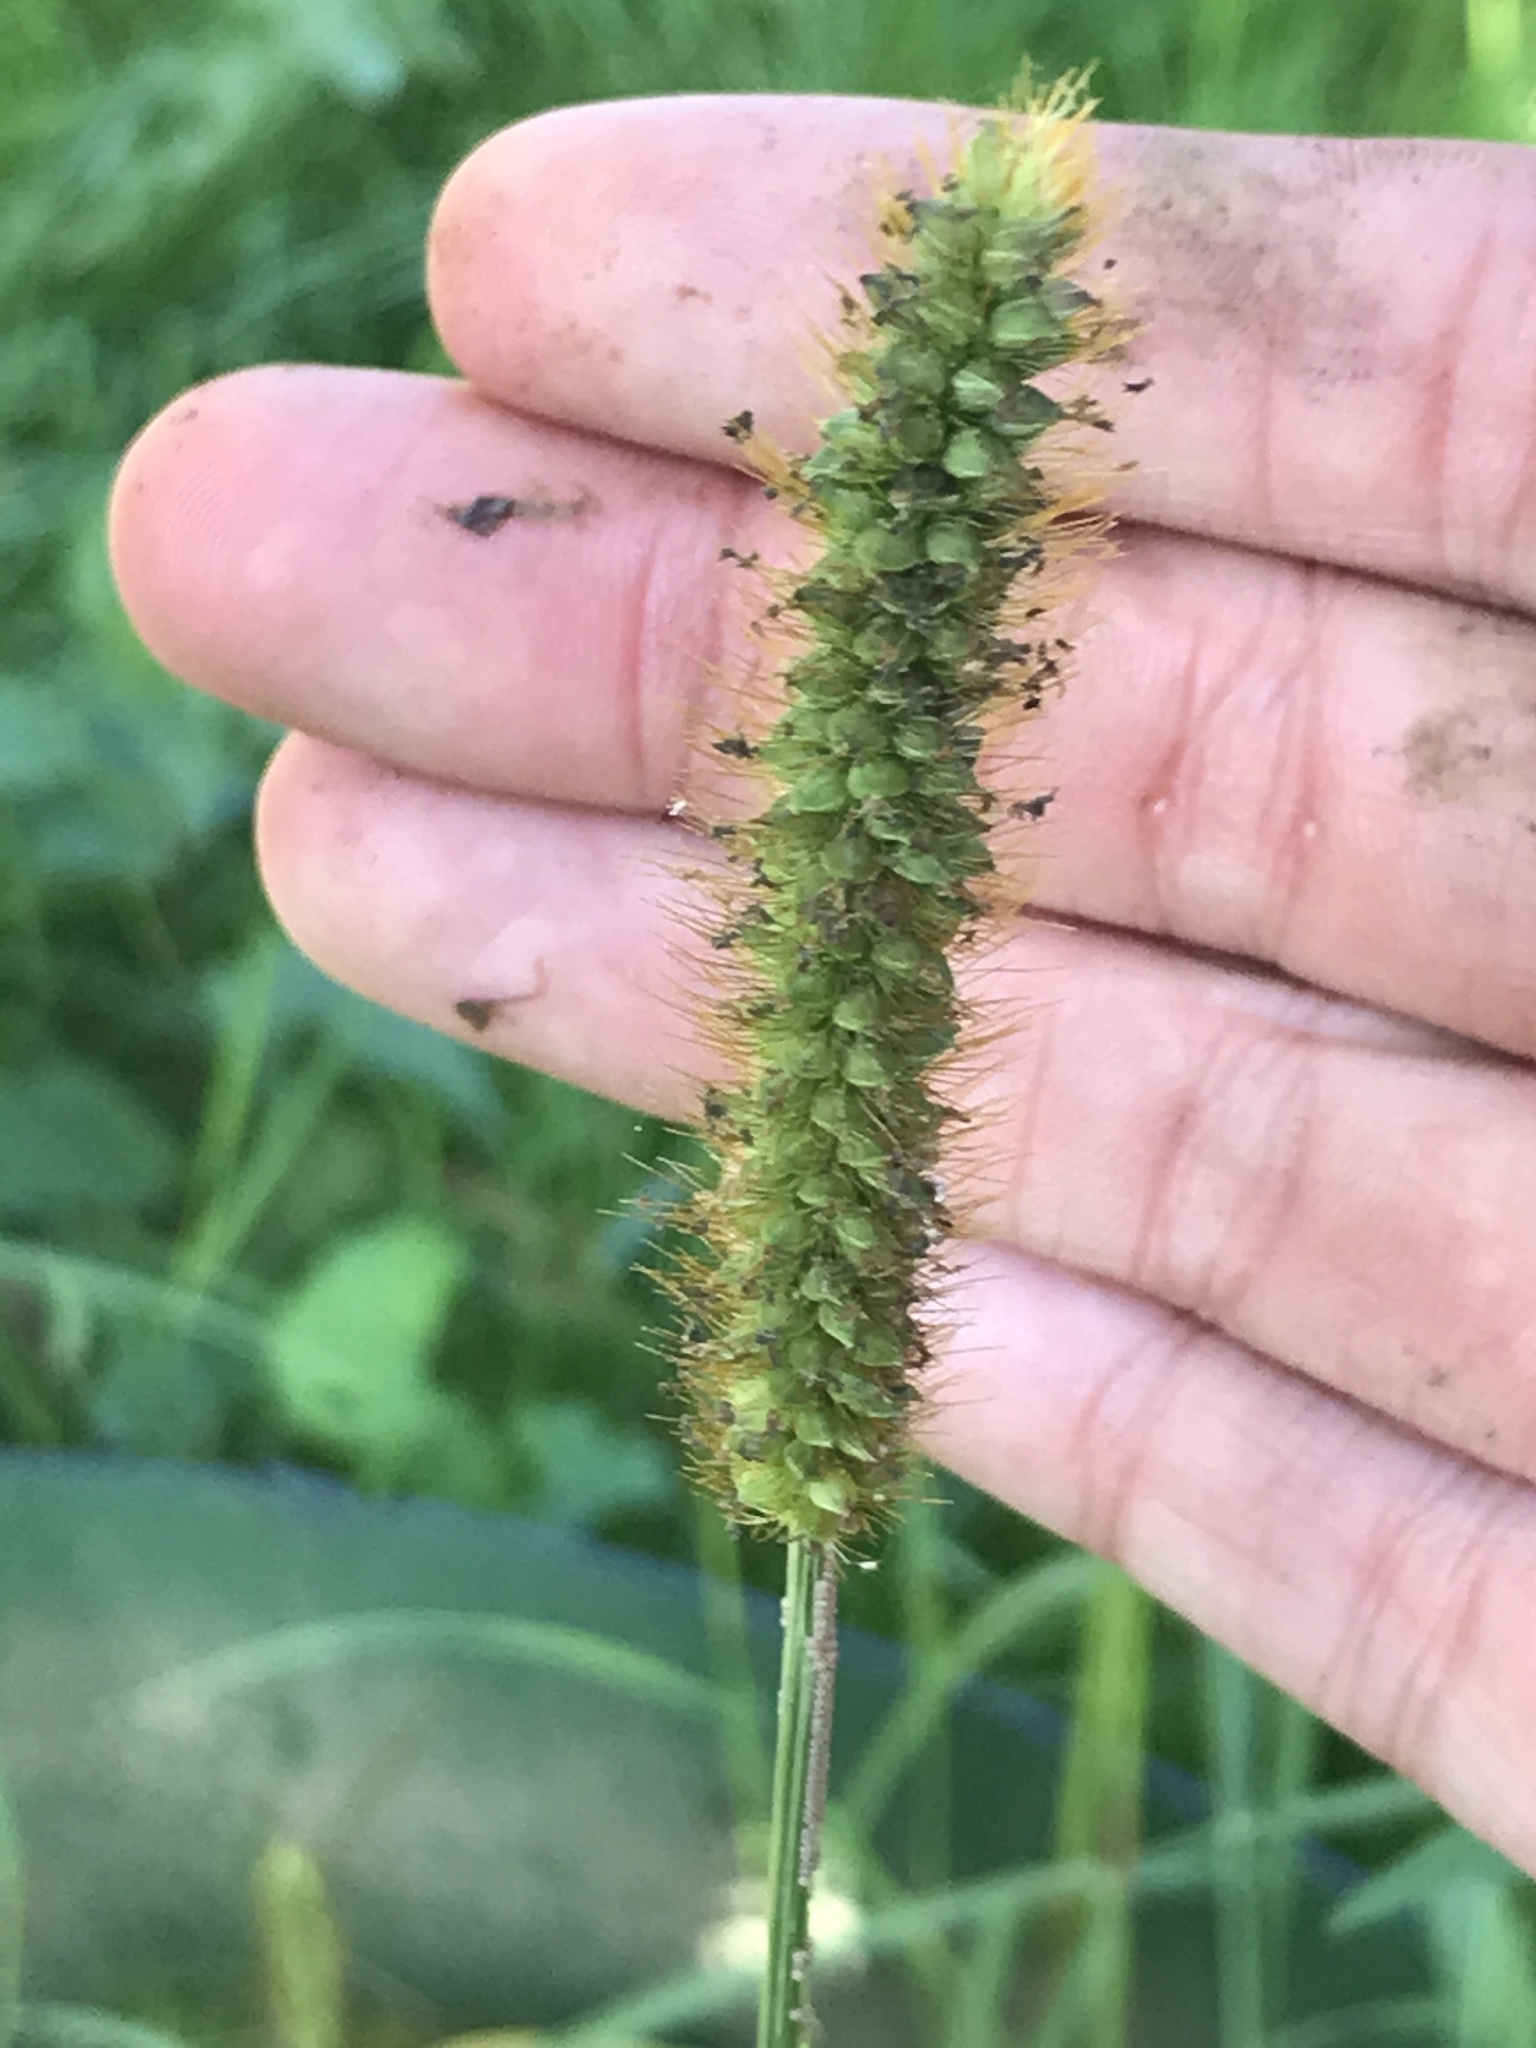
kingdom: Plantae
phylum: Tracheophyta
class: Liliopsida
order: Poales
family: Poaceae
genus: Setaria
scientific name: Setaria pumila
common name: Yellow bristle-grass
